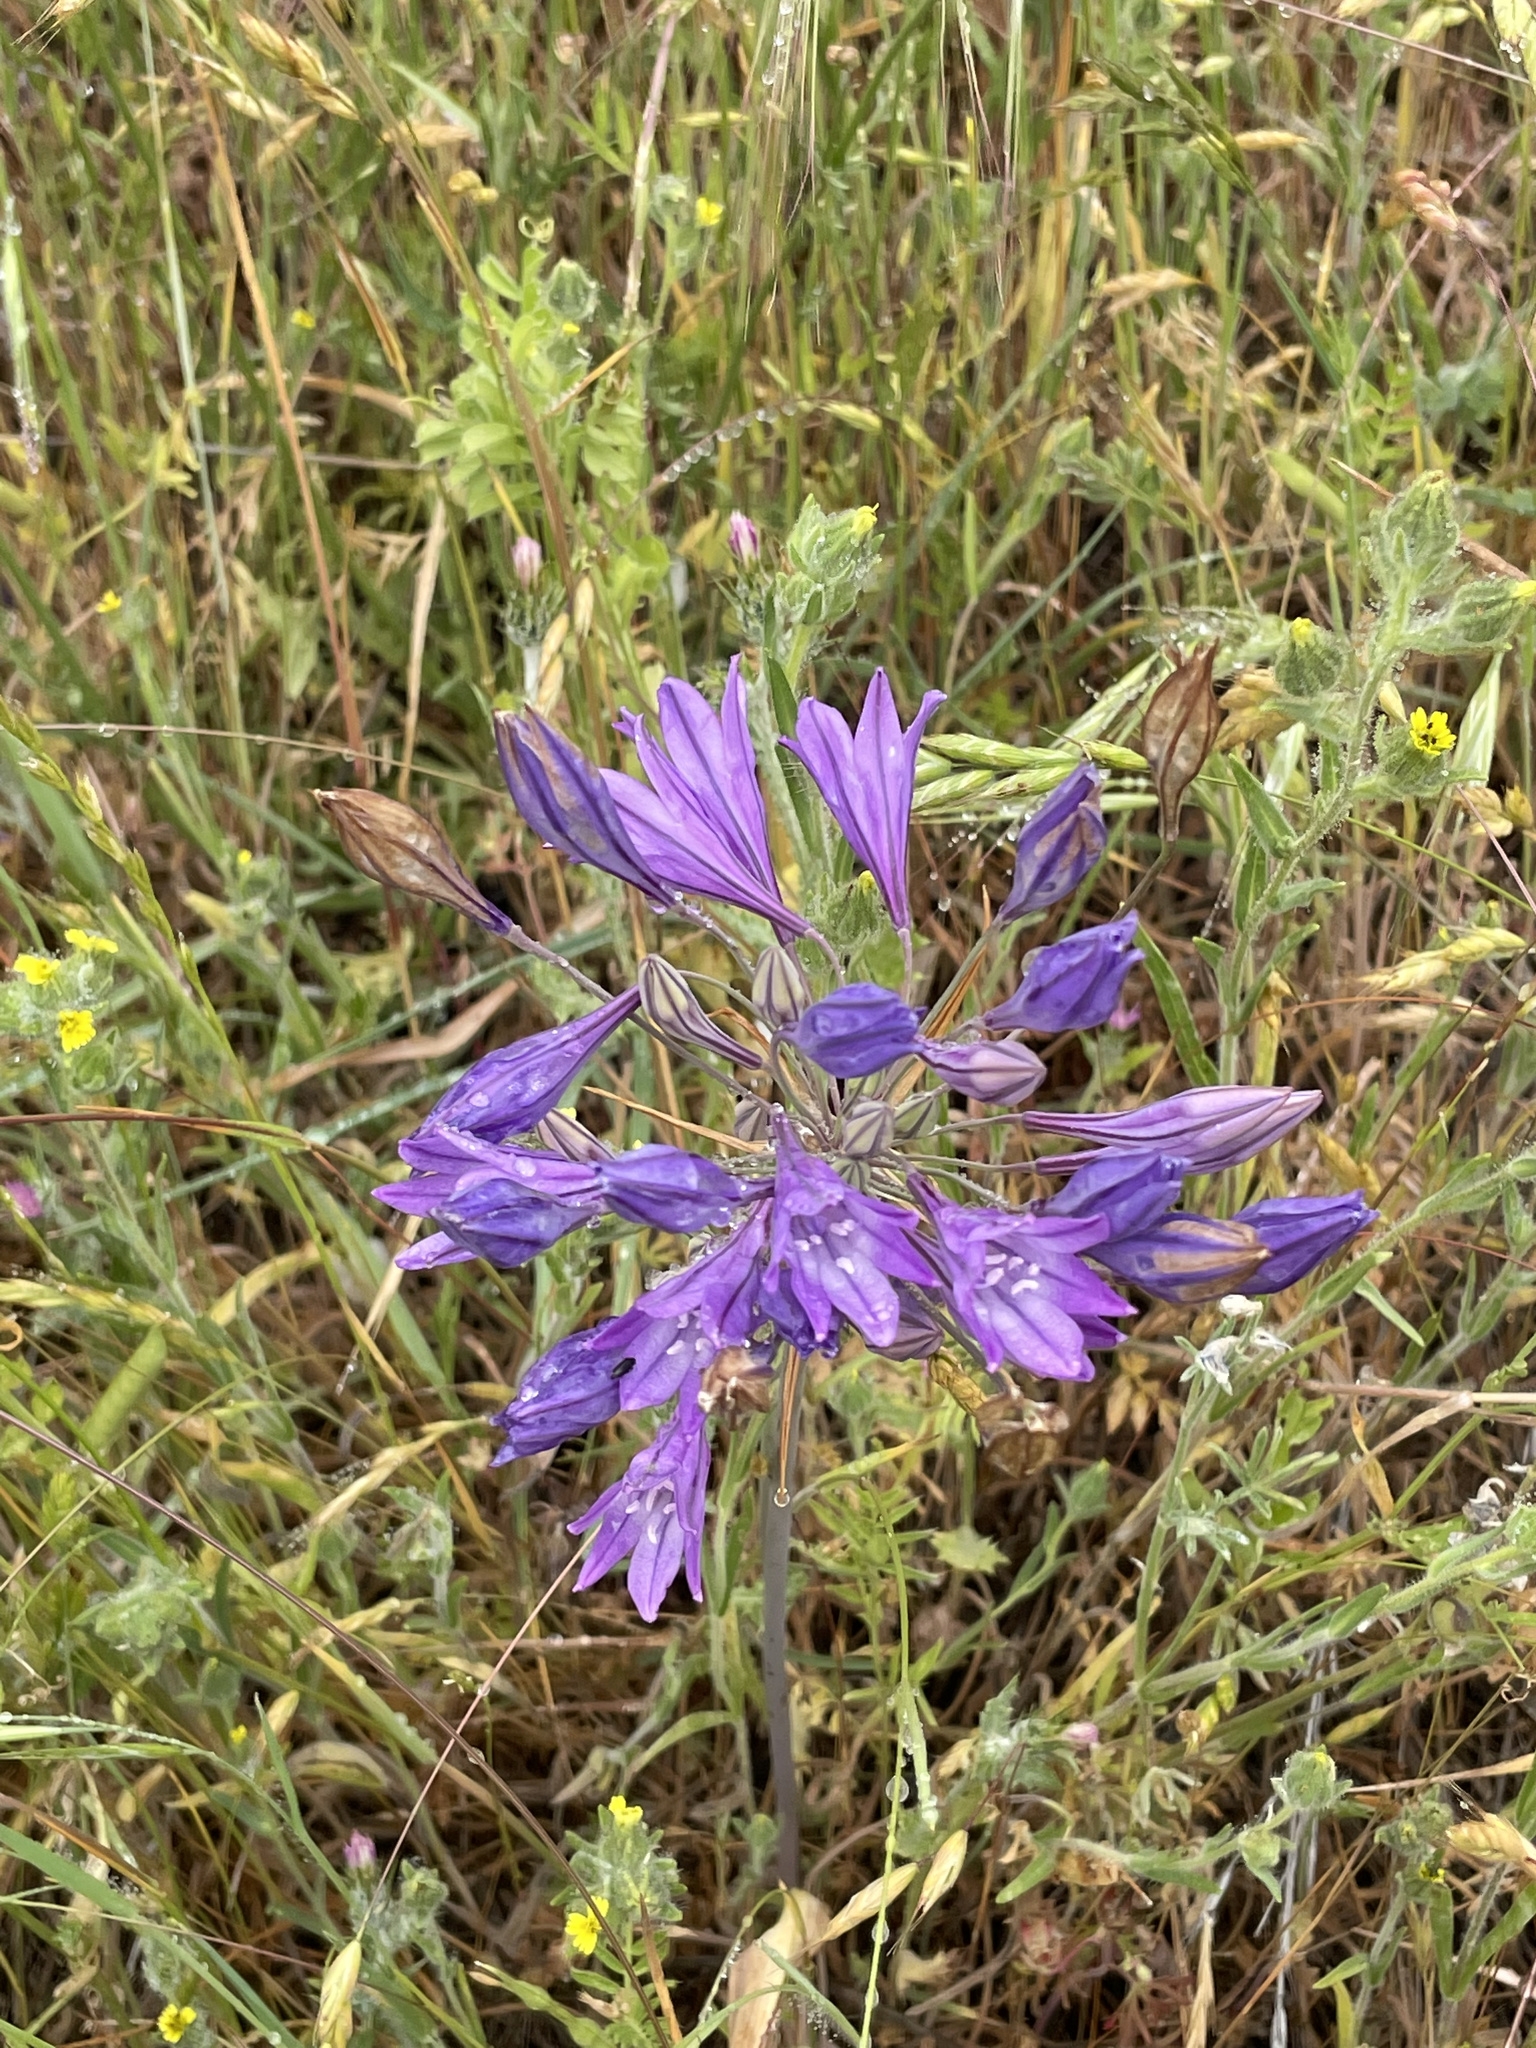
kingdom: Plantae
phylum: Tracheophyta
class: Liliopsida
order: Asparagales
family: Asparagaceae
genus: Triteleia
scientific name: Triteleia laxa
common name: Triplet-lily
